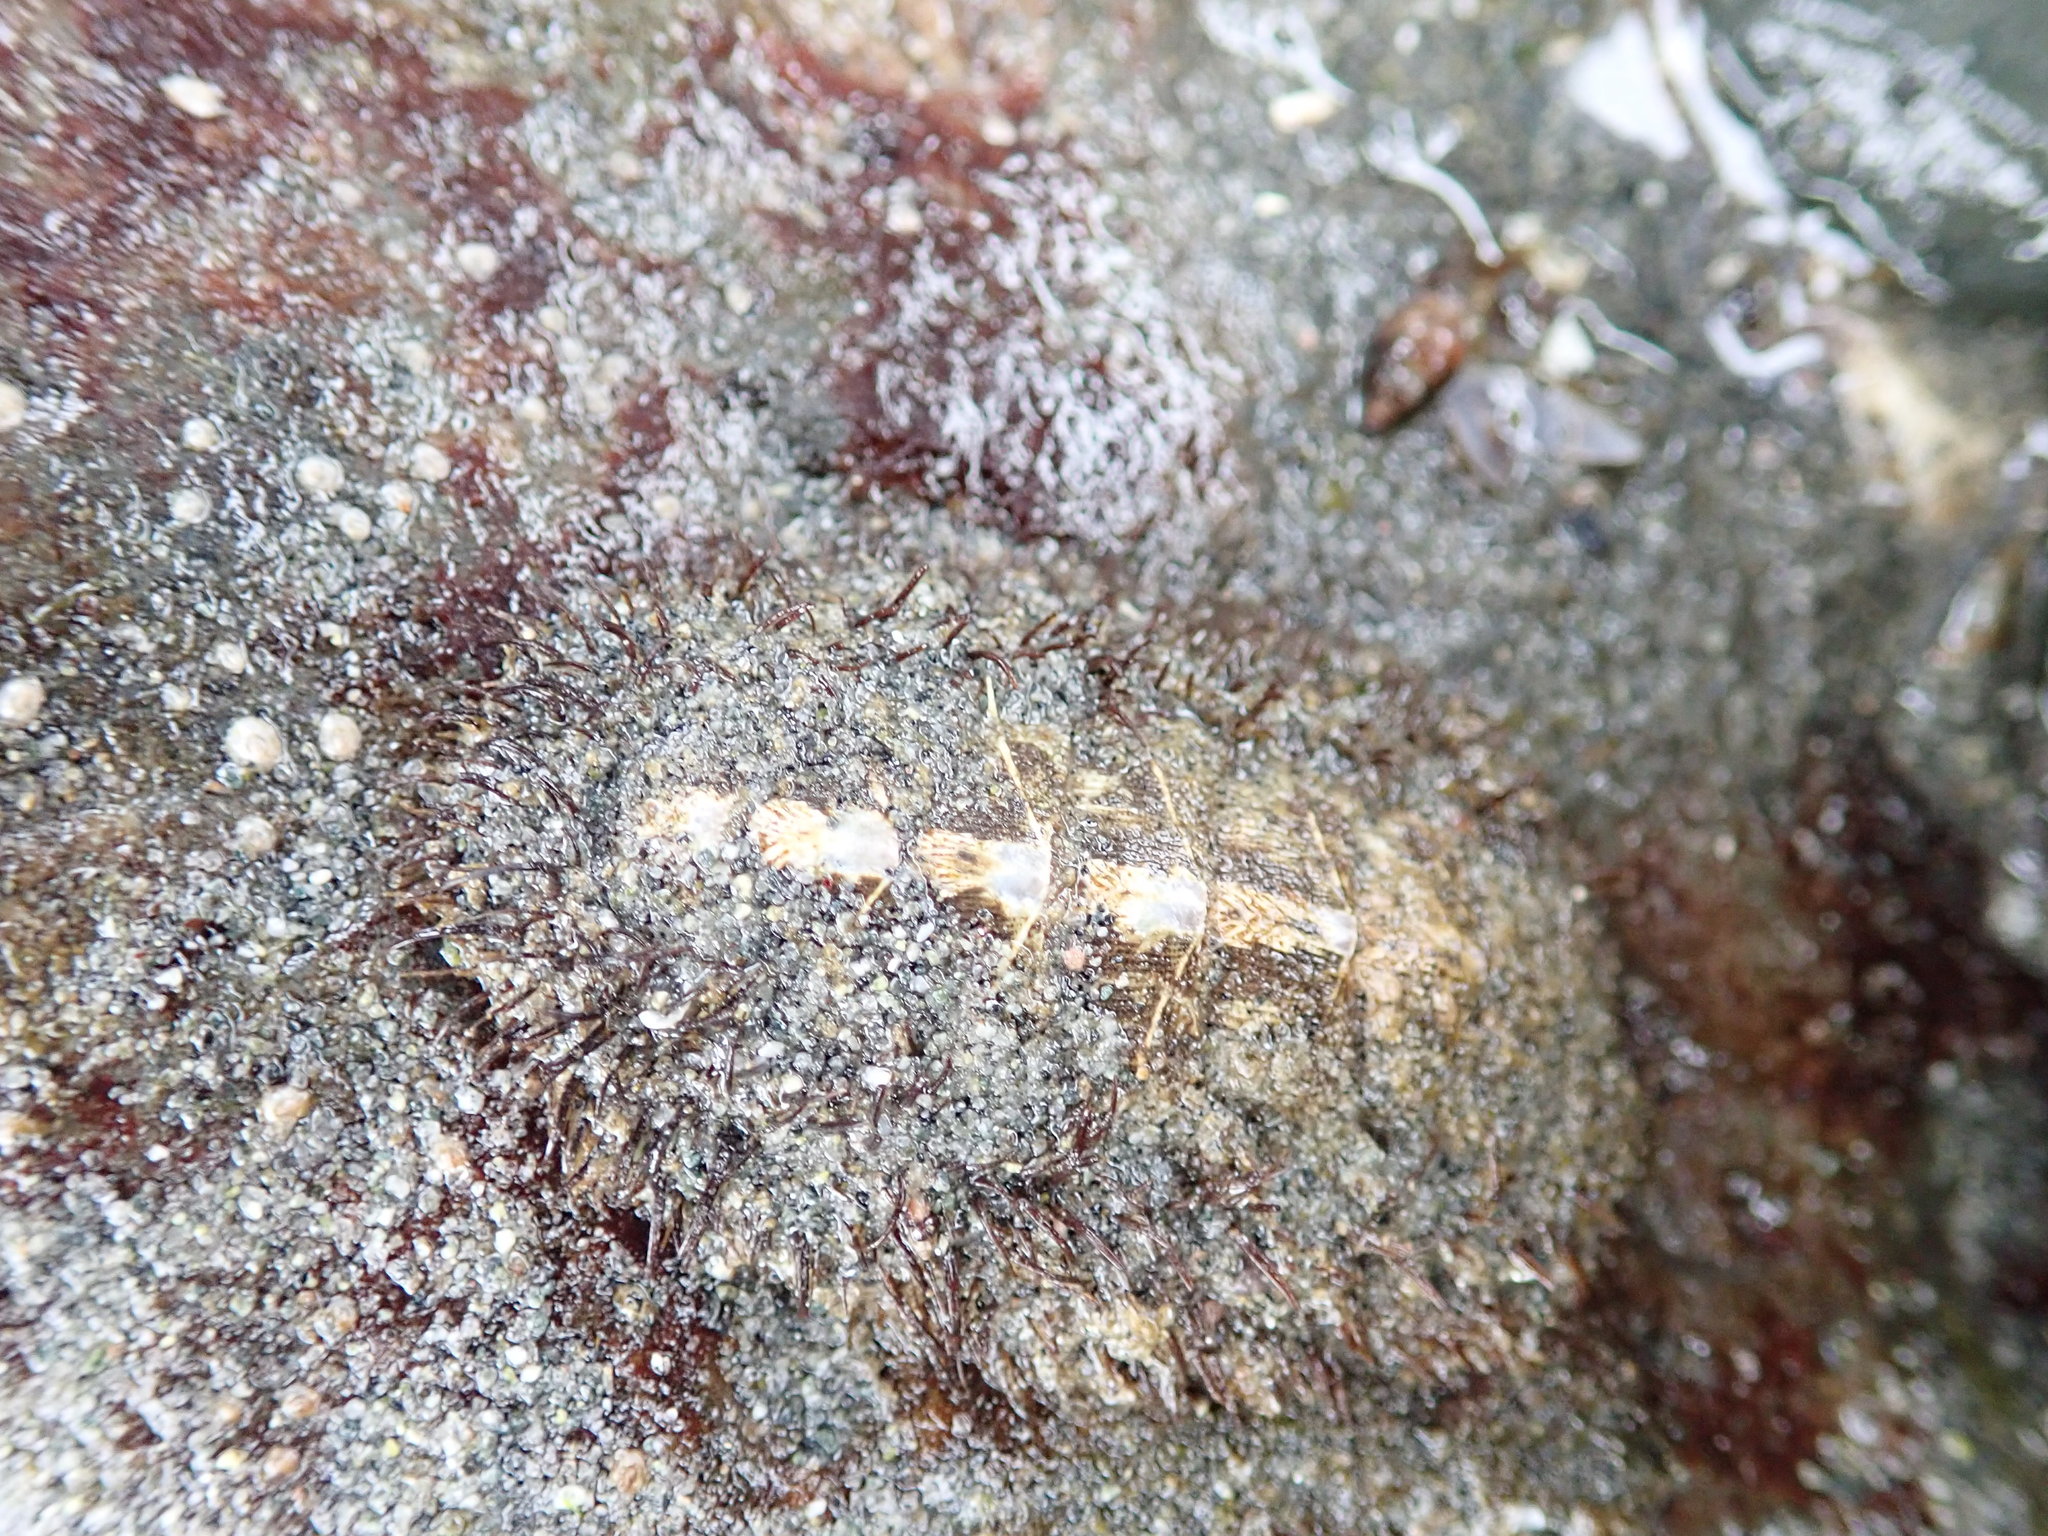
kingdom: Animalia
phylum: Mollusca
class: Polyplacophora
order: Chitonida
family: Mopaliidae
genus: Mopalia
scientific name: Mopalia muscosa
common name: Mossy chiton
